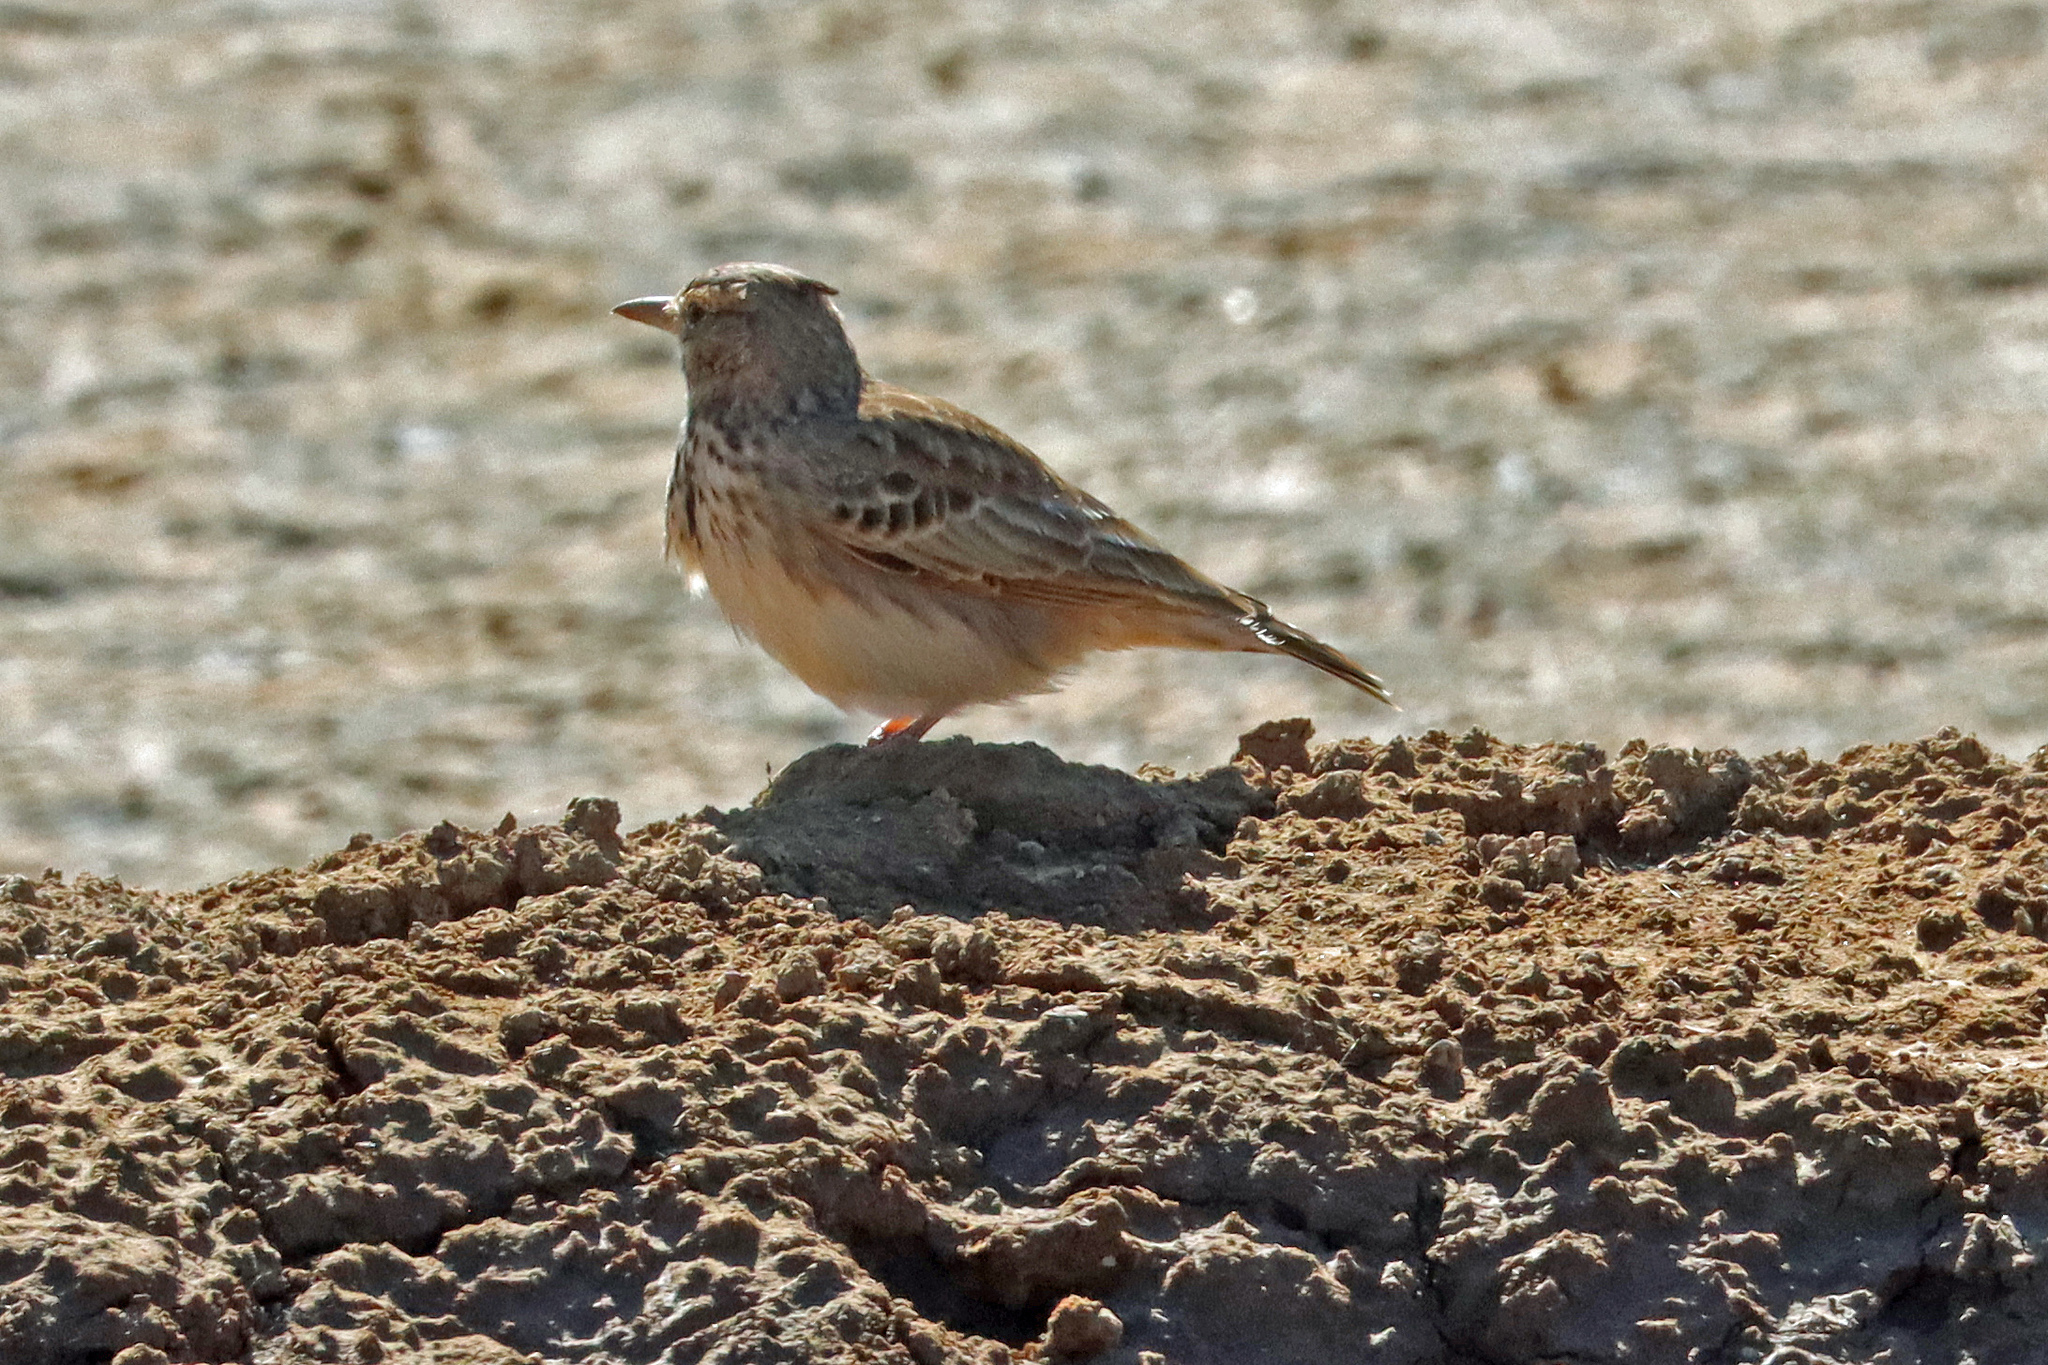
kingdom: Animalia
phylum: Chordata
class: Aves
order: Passeriformes
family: Alaudidae
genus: Galerida
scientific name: Galerida cristata
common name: Crested lark
